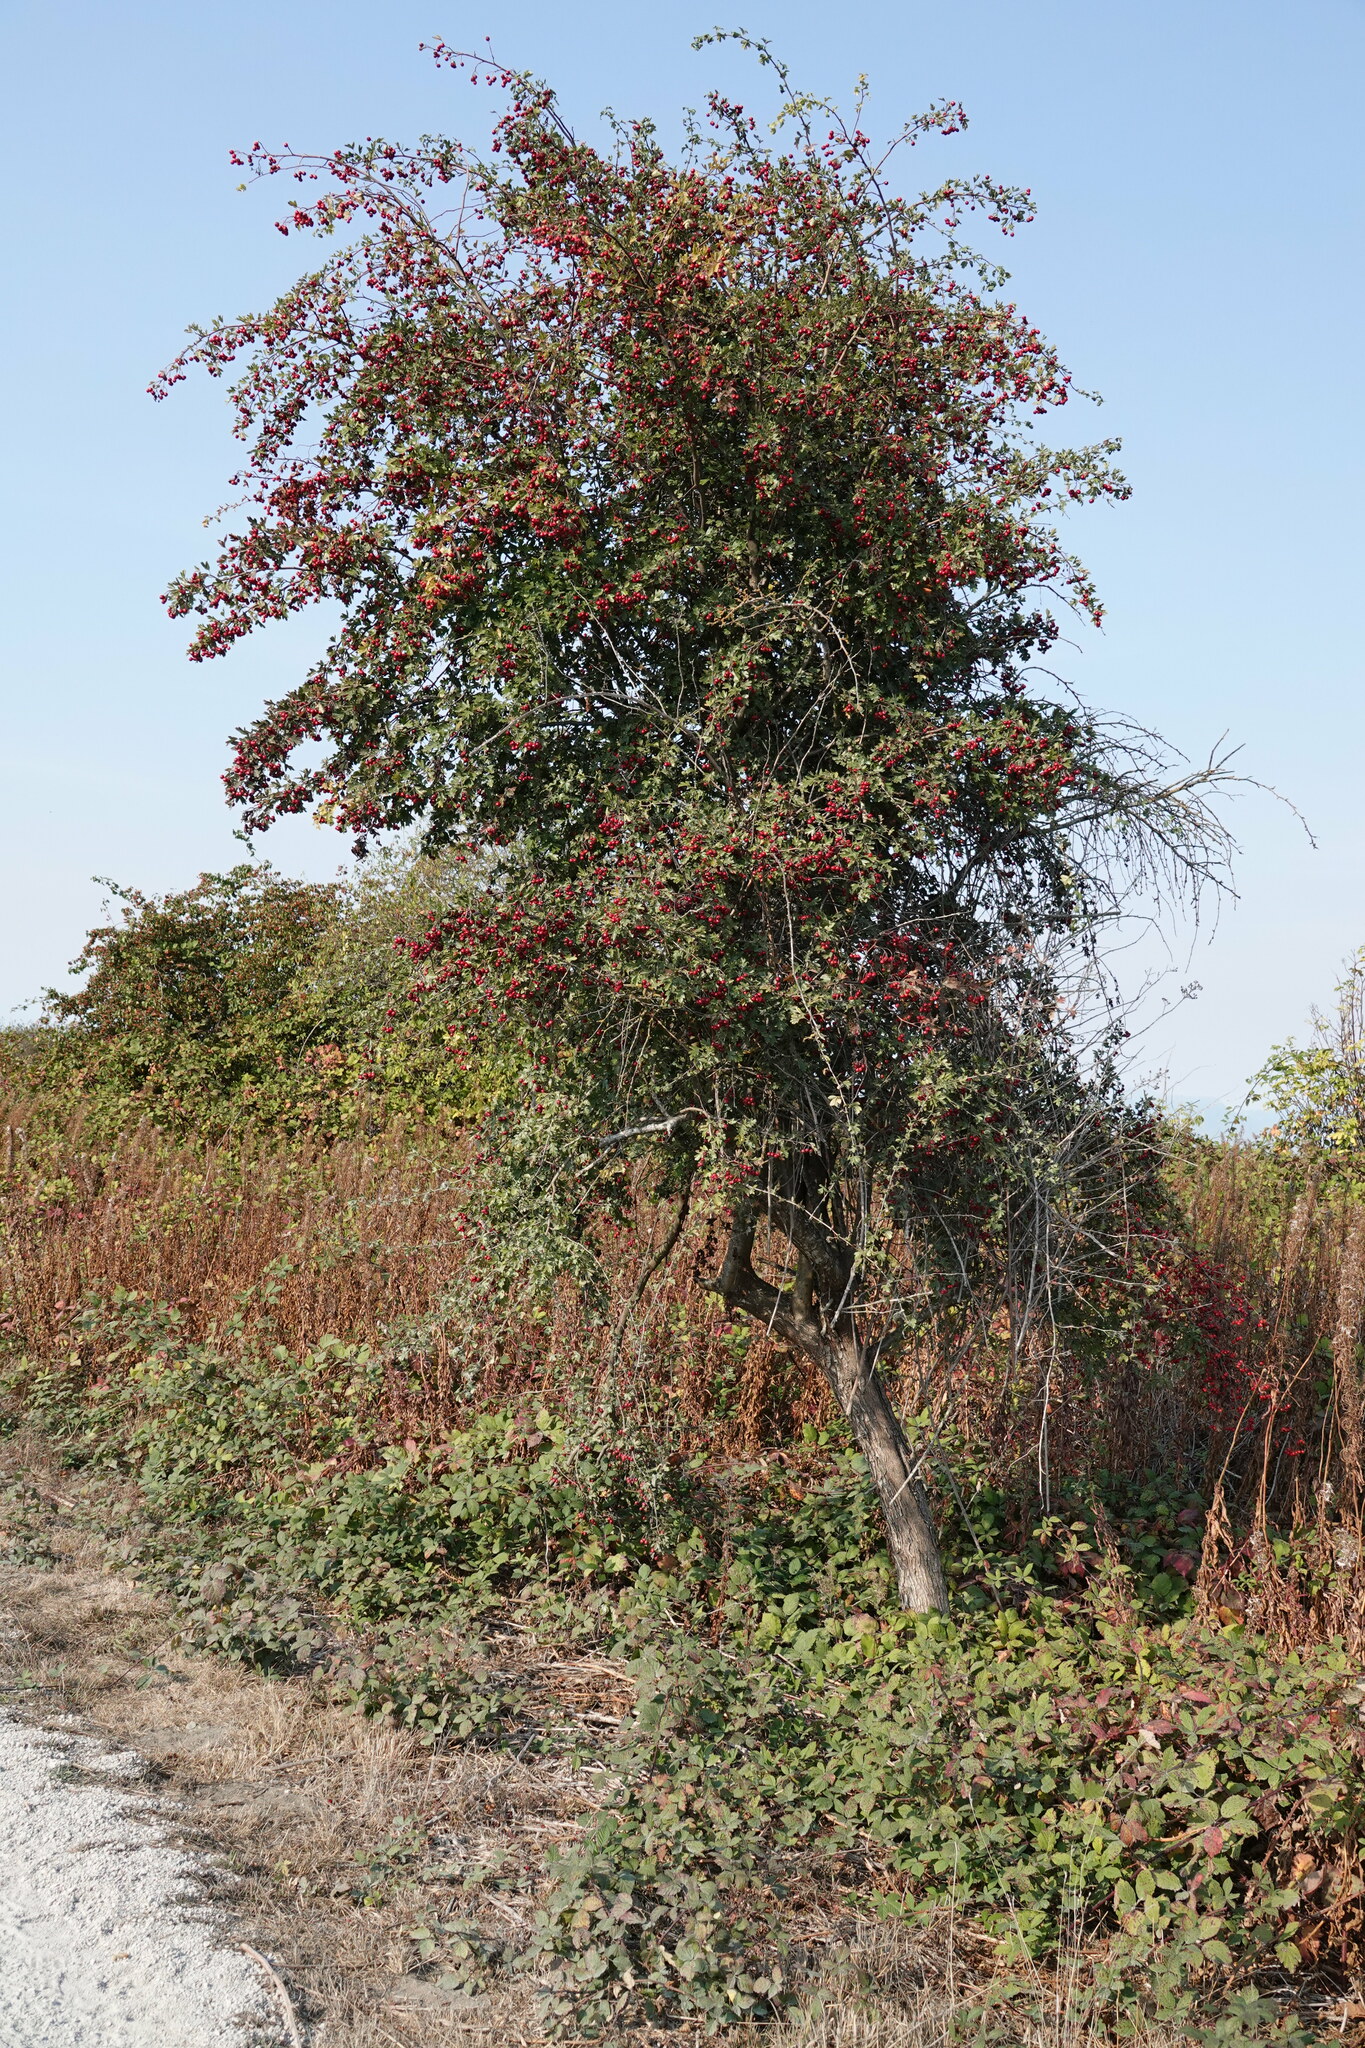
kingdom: Plantae
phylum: Tracheophyta
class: Magnoliopsida
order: Rosales
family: Rosaceae
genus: Crataegus
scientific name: Crataegus monogyna
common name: Hawthorn
